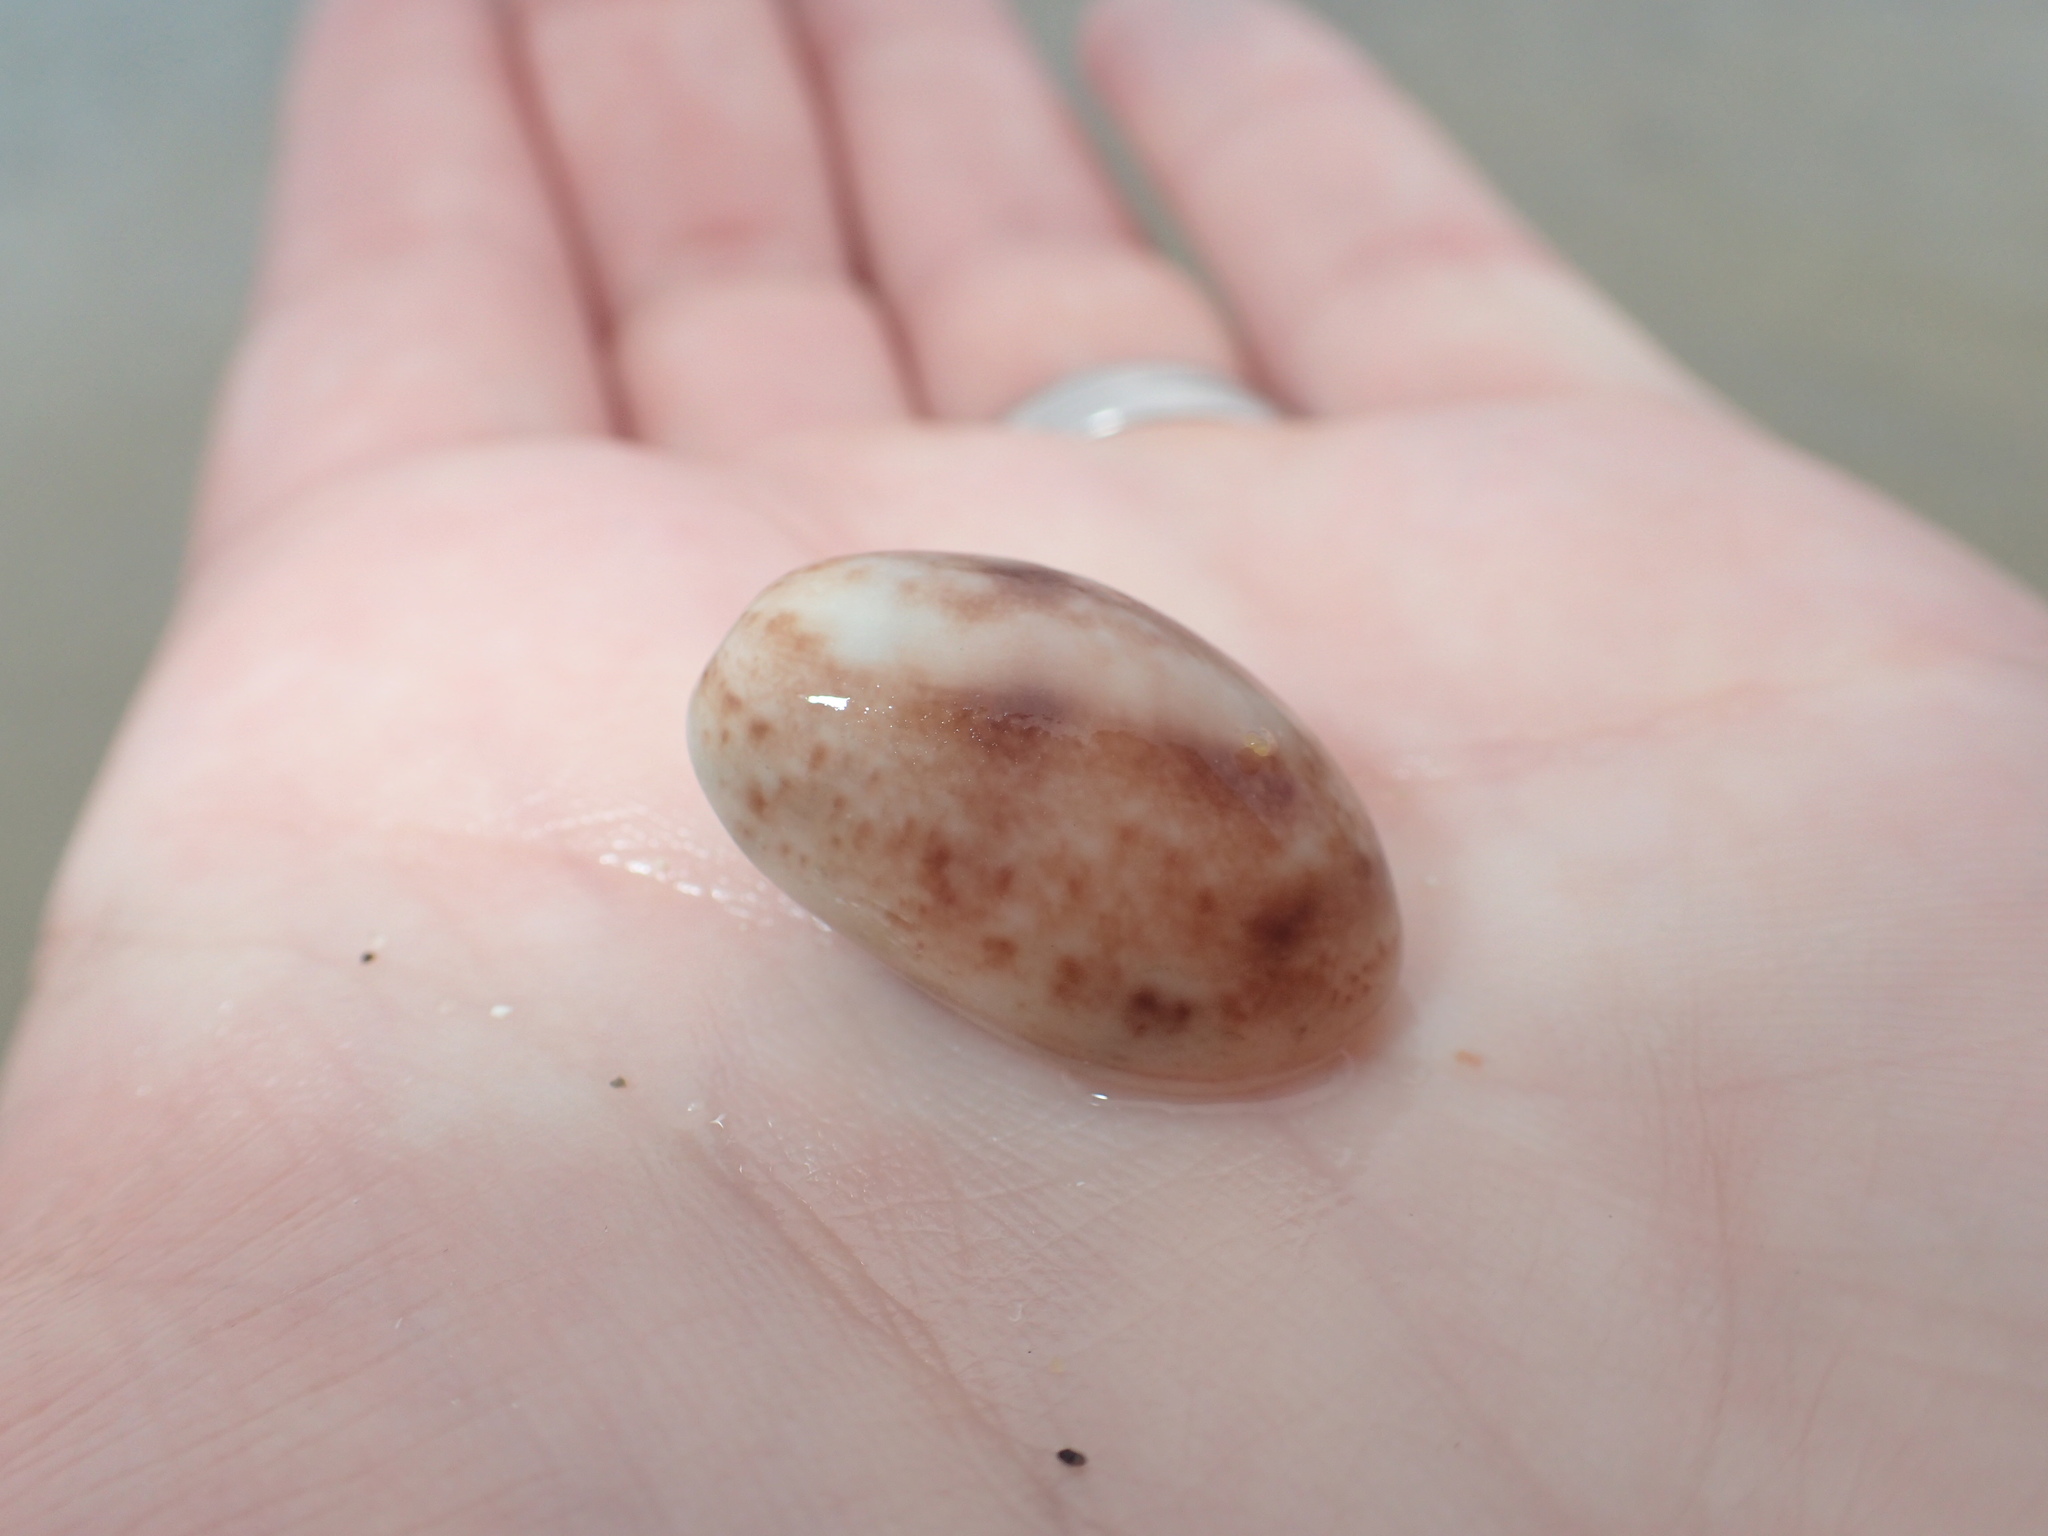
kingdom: Animalia
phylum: Mollusca
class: Gastropoda
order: Cephalaspidea
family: Bullidae
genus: Bulla
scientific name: Bulla occidentalis
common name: Common west-indian bubble
